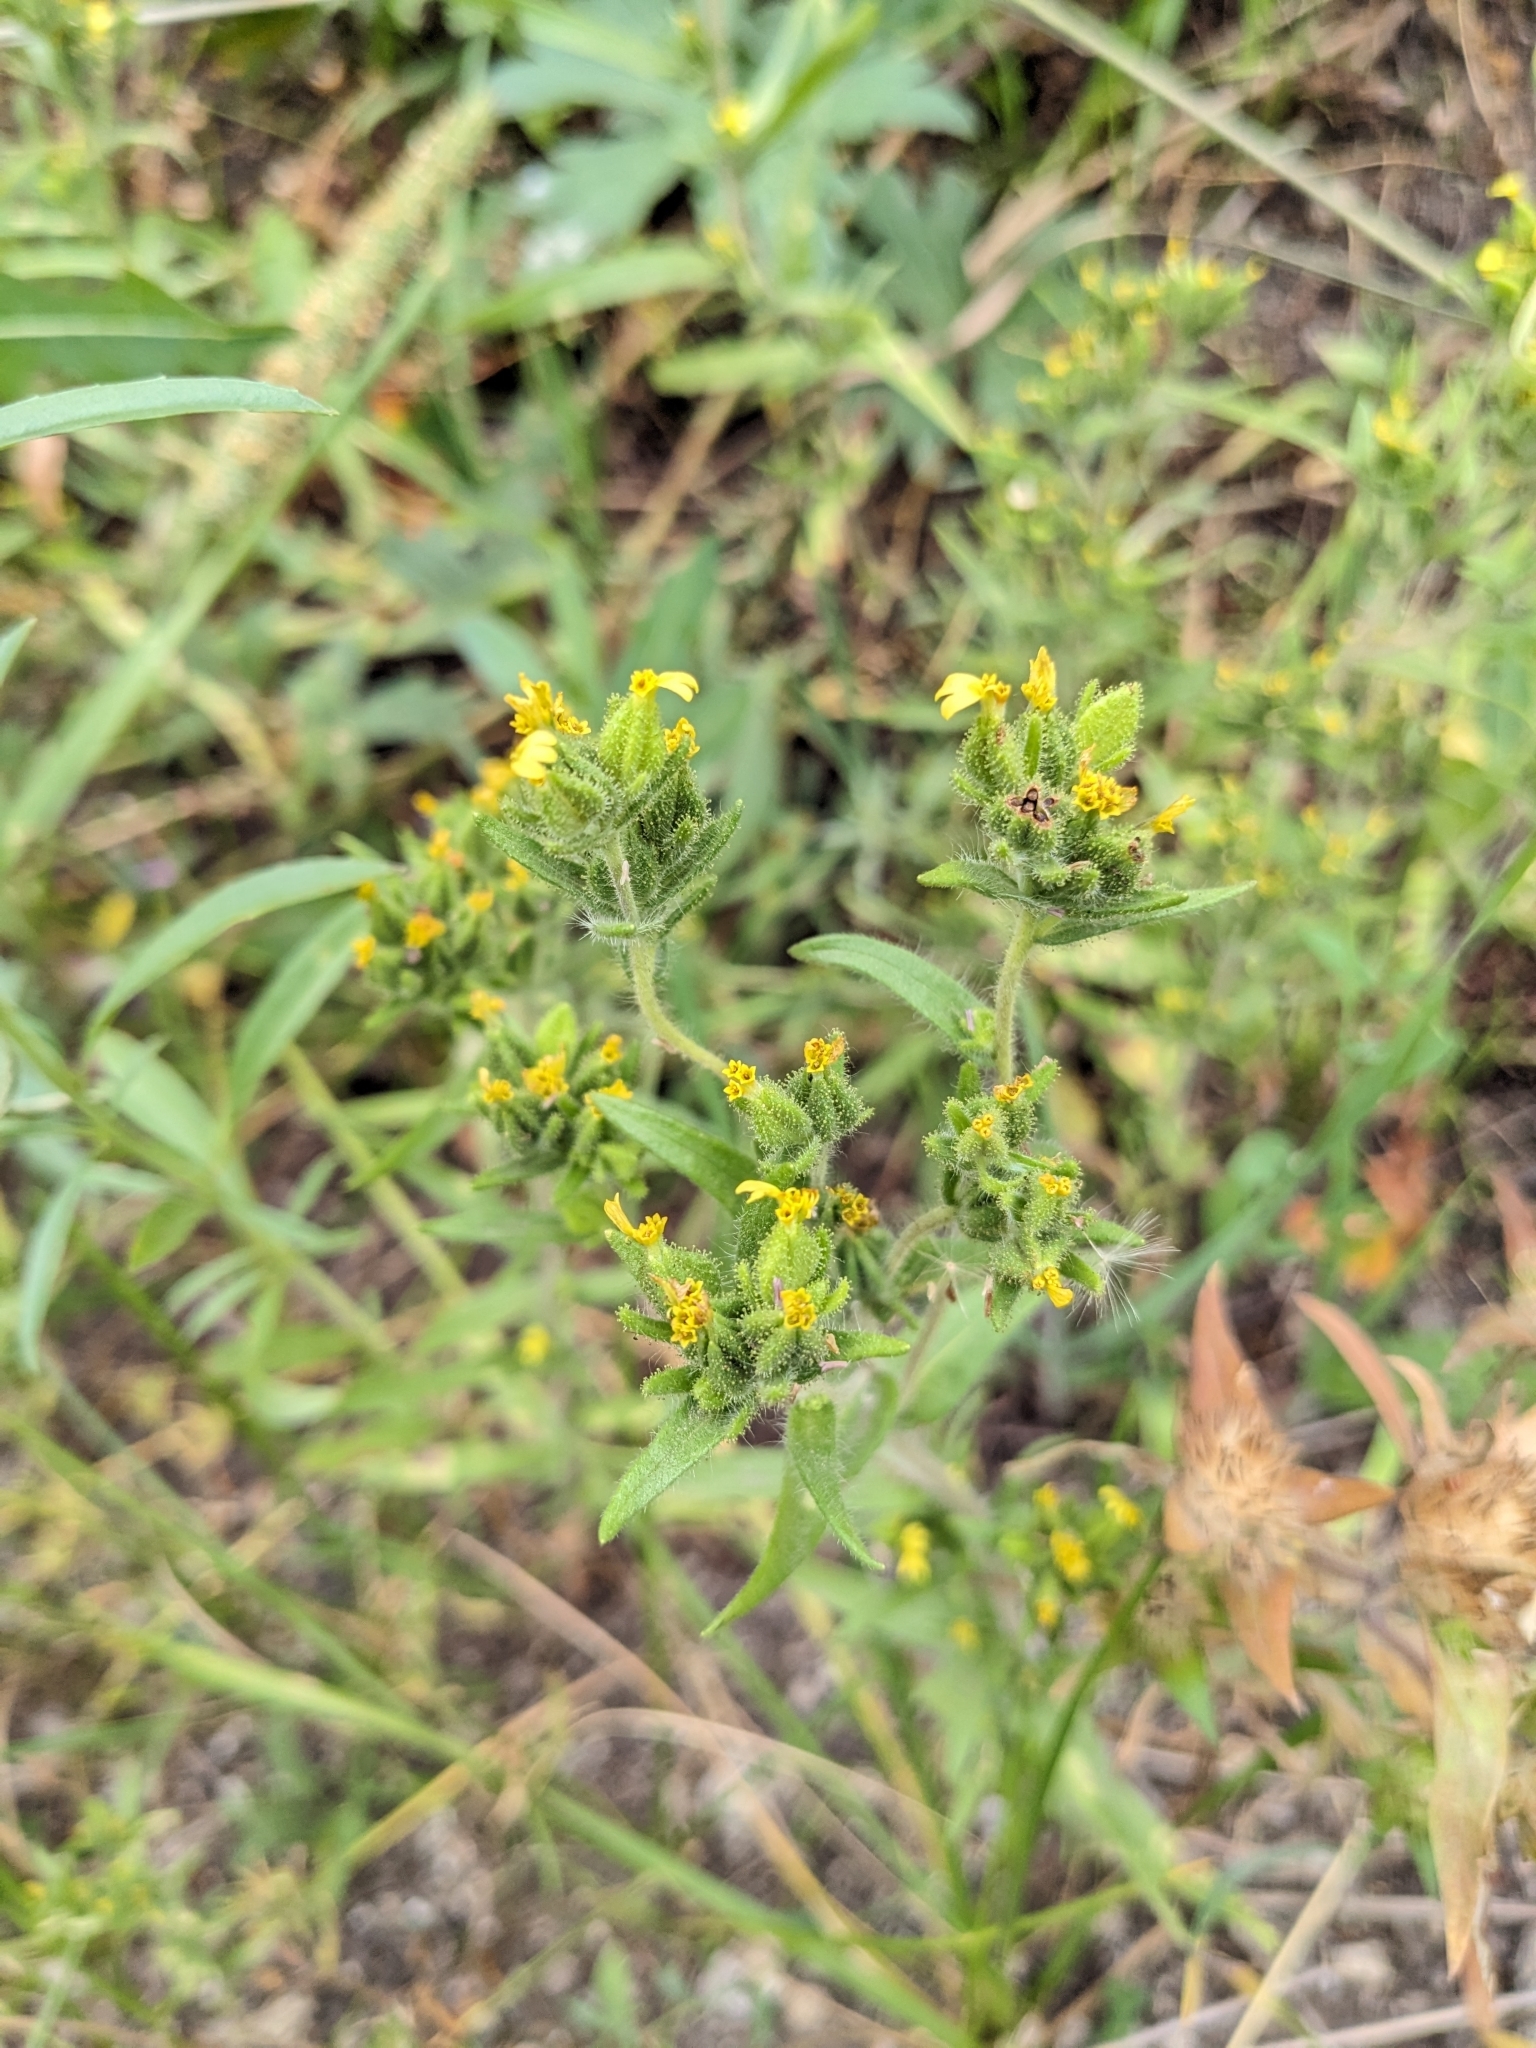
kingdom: Plantae
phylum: Tracheophyta
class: Magnoliopsida
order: Asterales
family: Asteraceae
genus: Madia
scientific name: Madia glomerata
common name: Mountain tarweed
